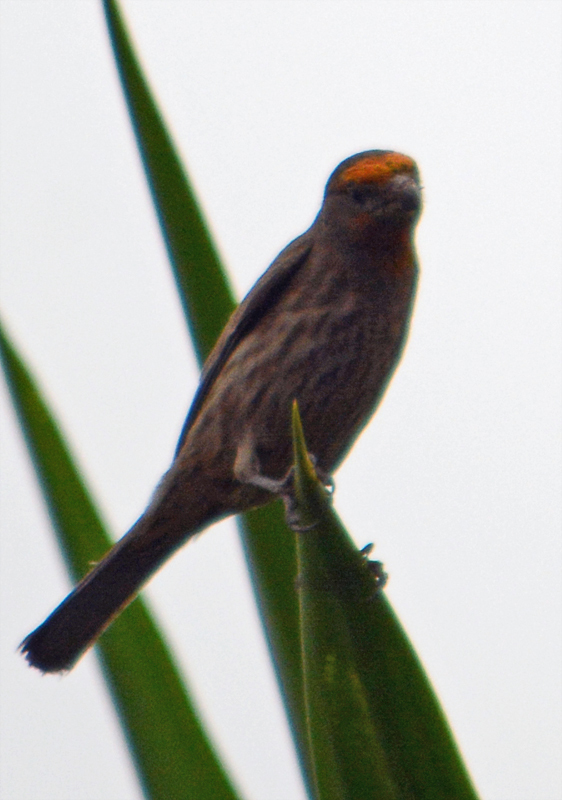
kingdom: Animalia
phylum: Chordata
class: Aves
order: Passeriformes
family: Fringillidae
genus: Haemorhous
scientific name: Haemorhous mexicanus
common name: House finch
